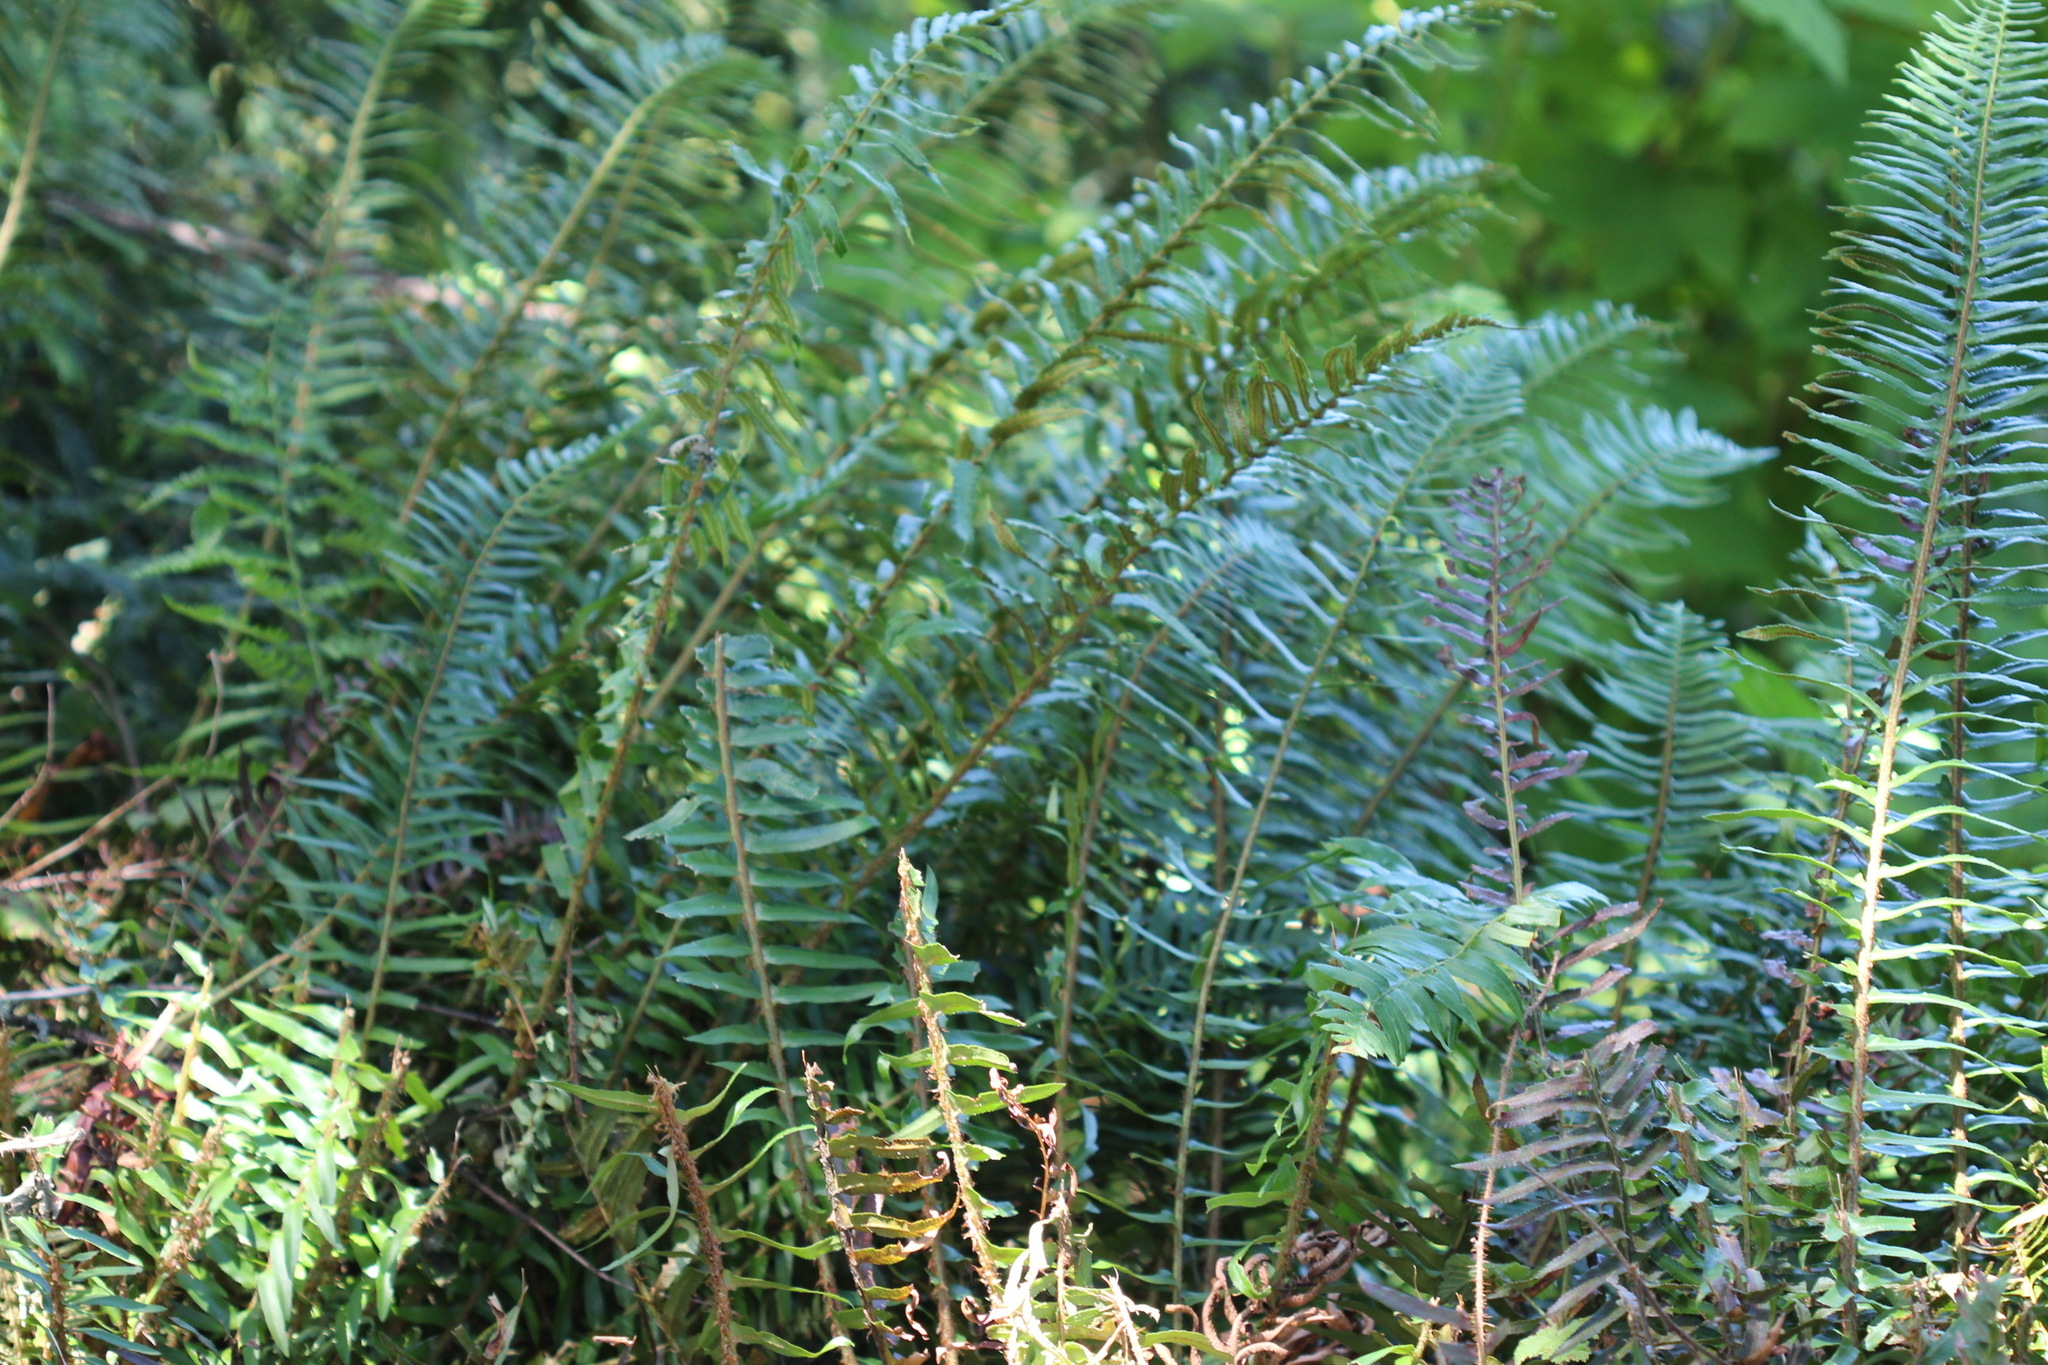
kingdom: Plantae
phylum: Tracheophyta
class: Polypodiopsida
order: Polypodiales
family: Dryopteridaceae
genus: Polystichum
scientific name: Polystichum munitum
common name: Western sword-fern
